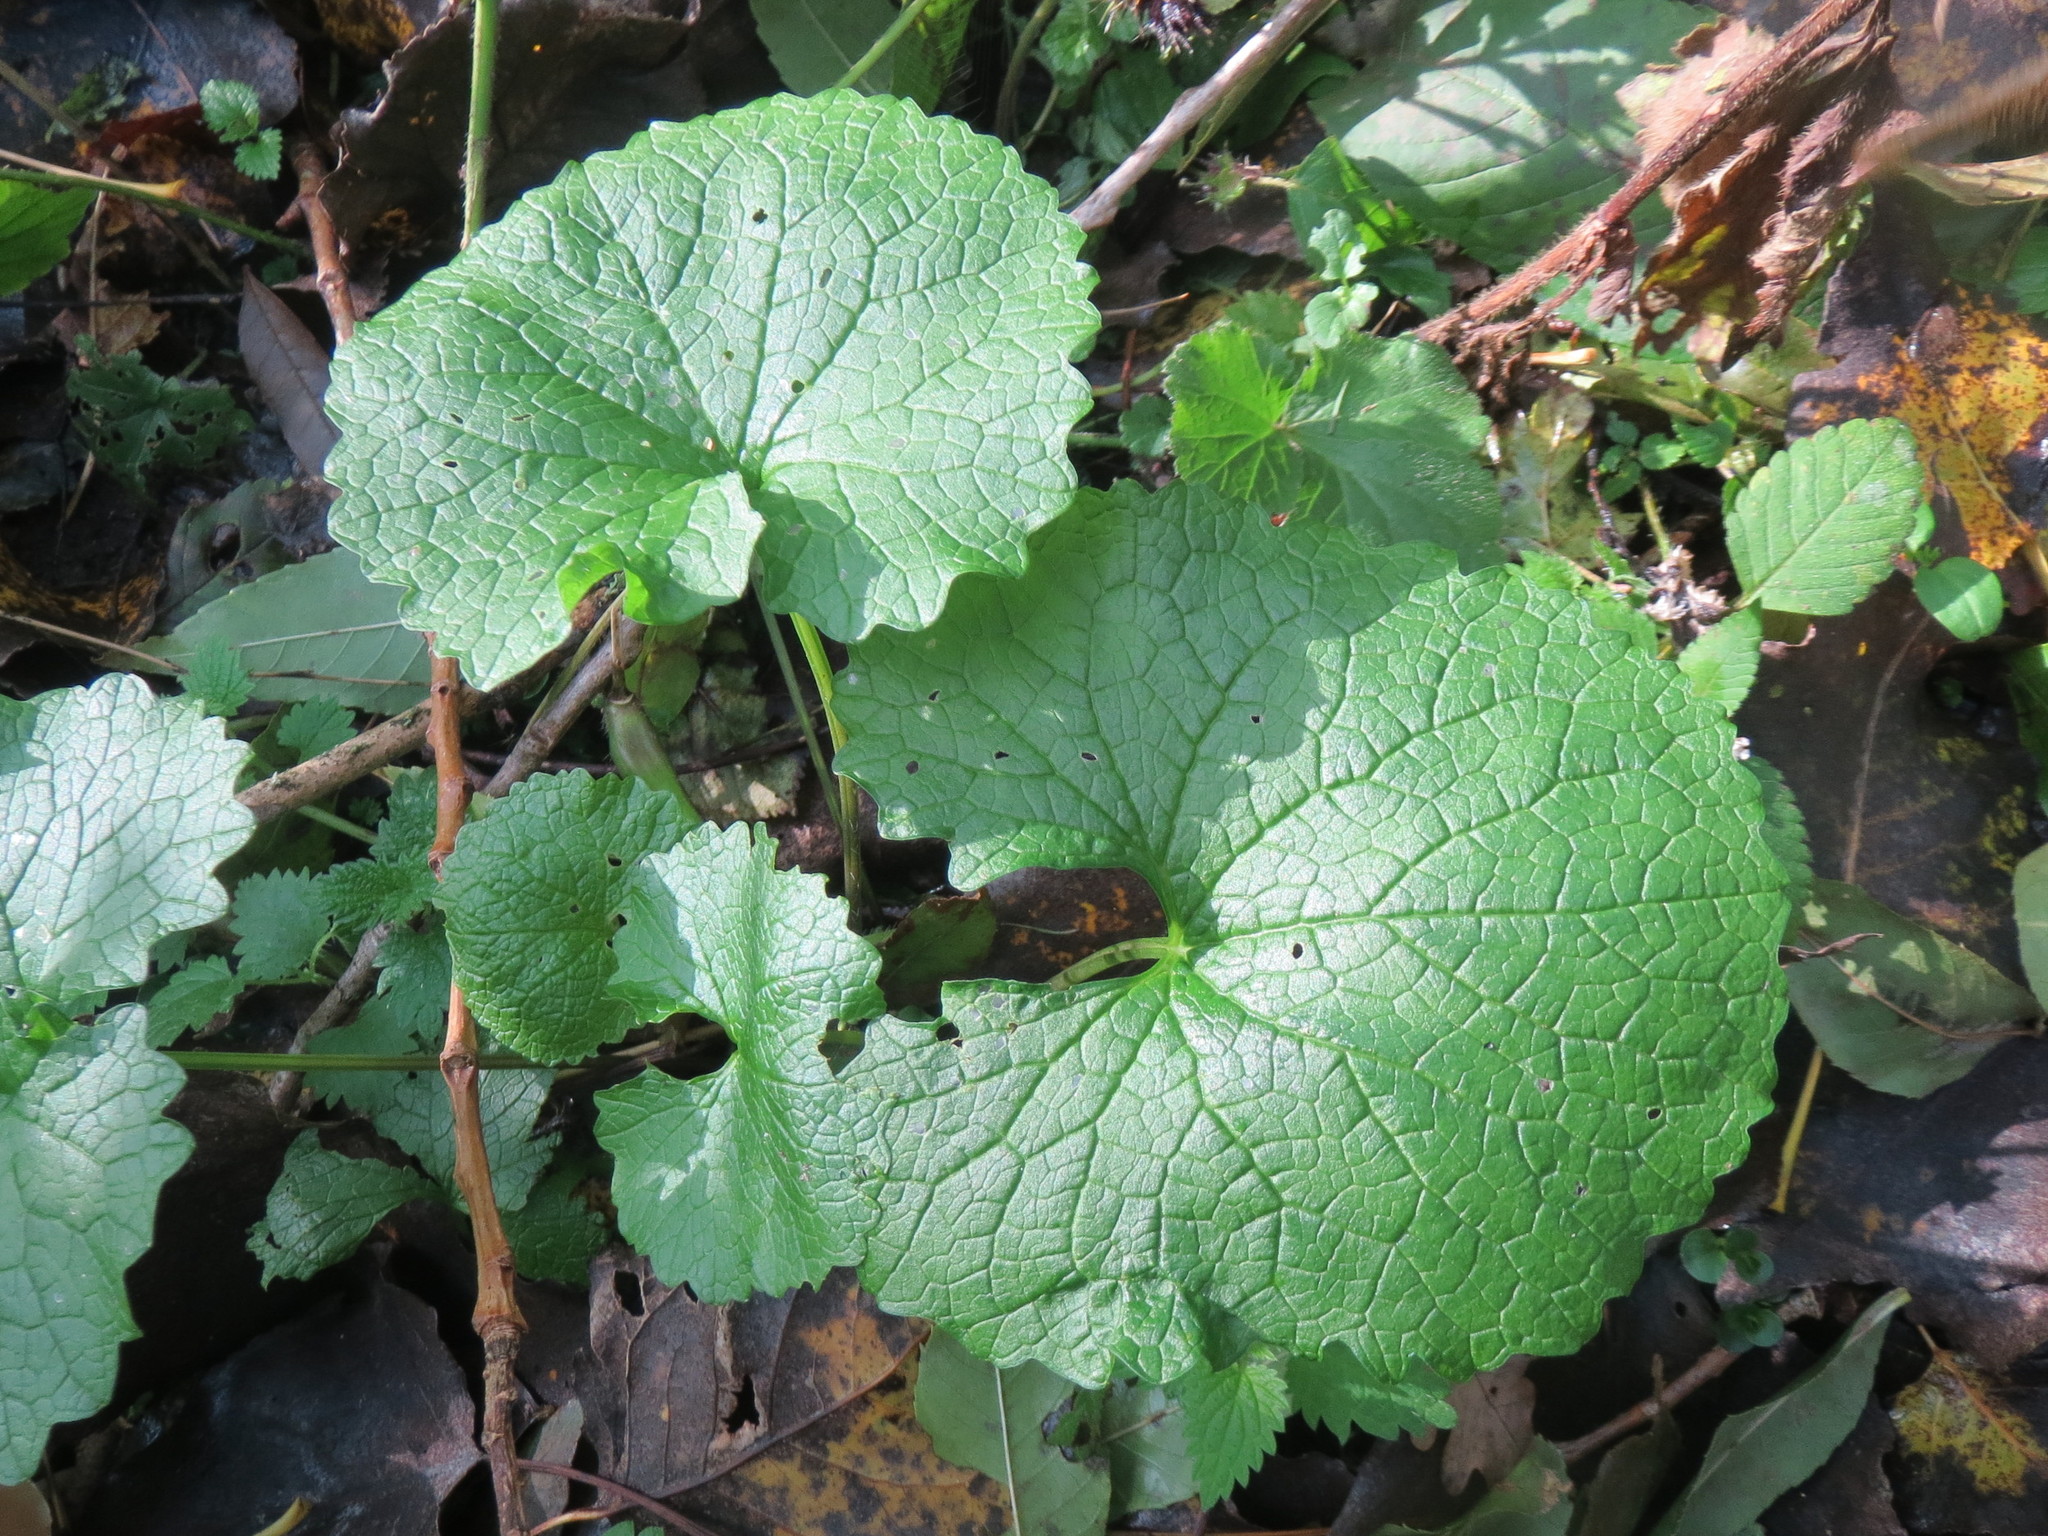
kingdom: Plantae
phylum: Tracheophyta
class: Magnoliopsida
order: Brassicales
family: Brassicaceae
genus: Alliaria
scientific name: Alliaria petiolata
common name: Garlic mustard
